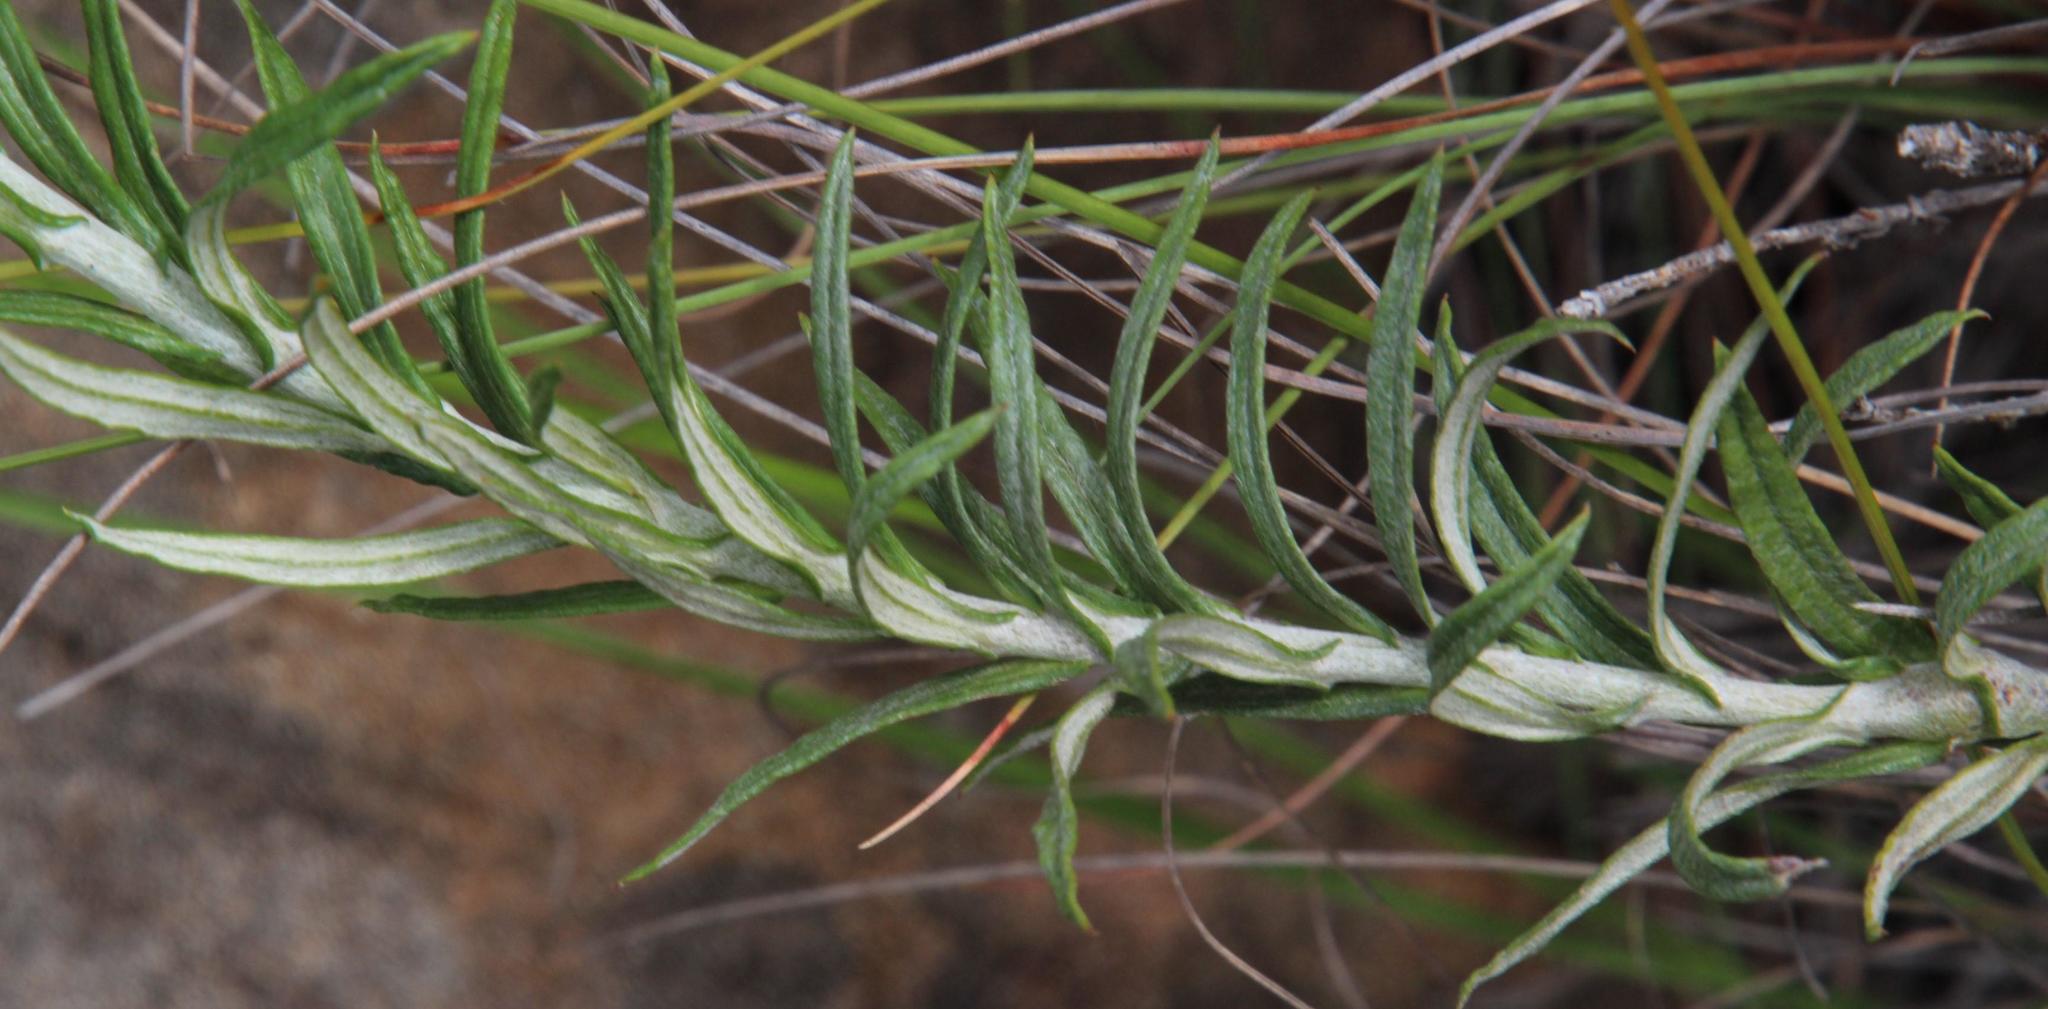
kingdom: Plantae
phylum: Tracheophyta
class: Magnoliopsida
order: Asterales
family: Asteraceae
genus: Helichrysum
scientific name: Helichrysum rugulosum
